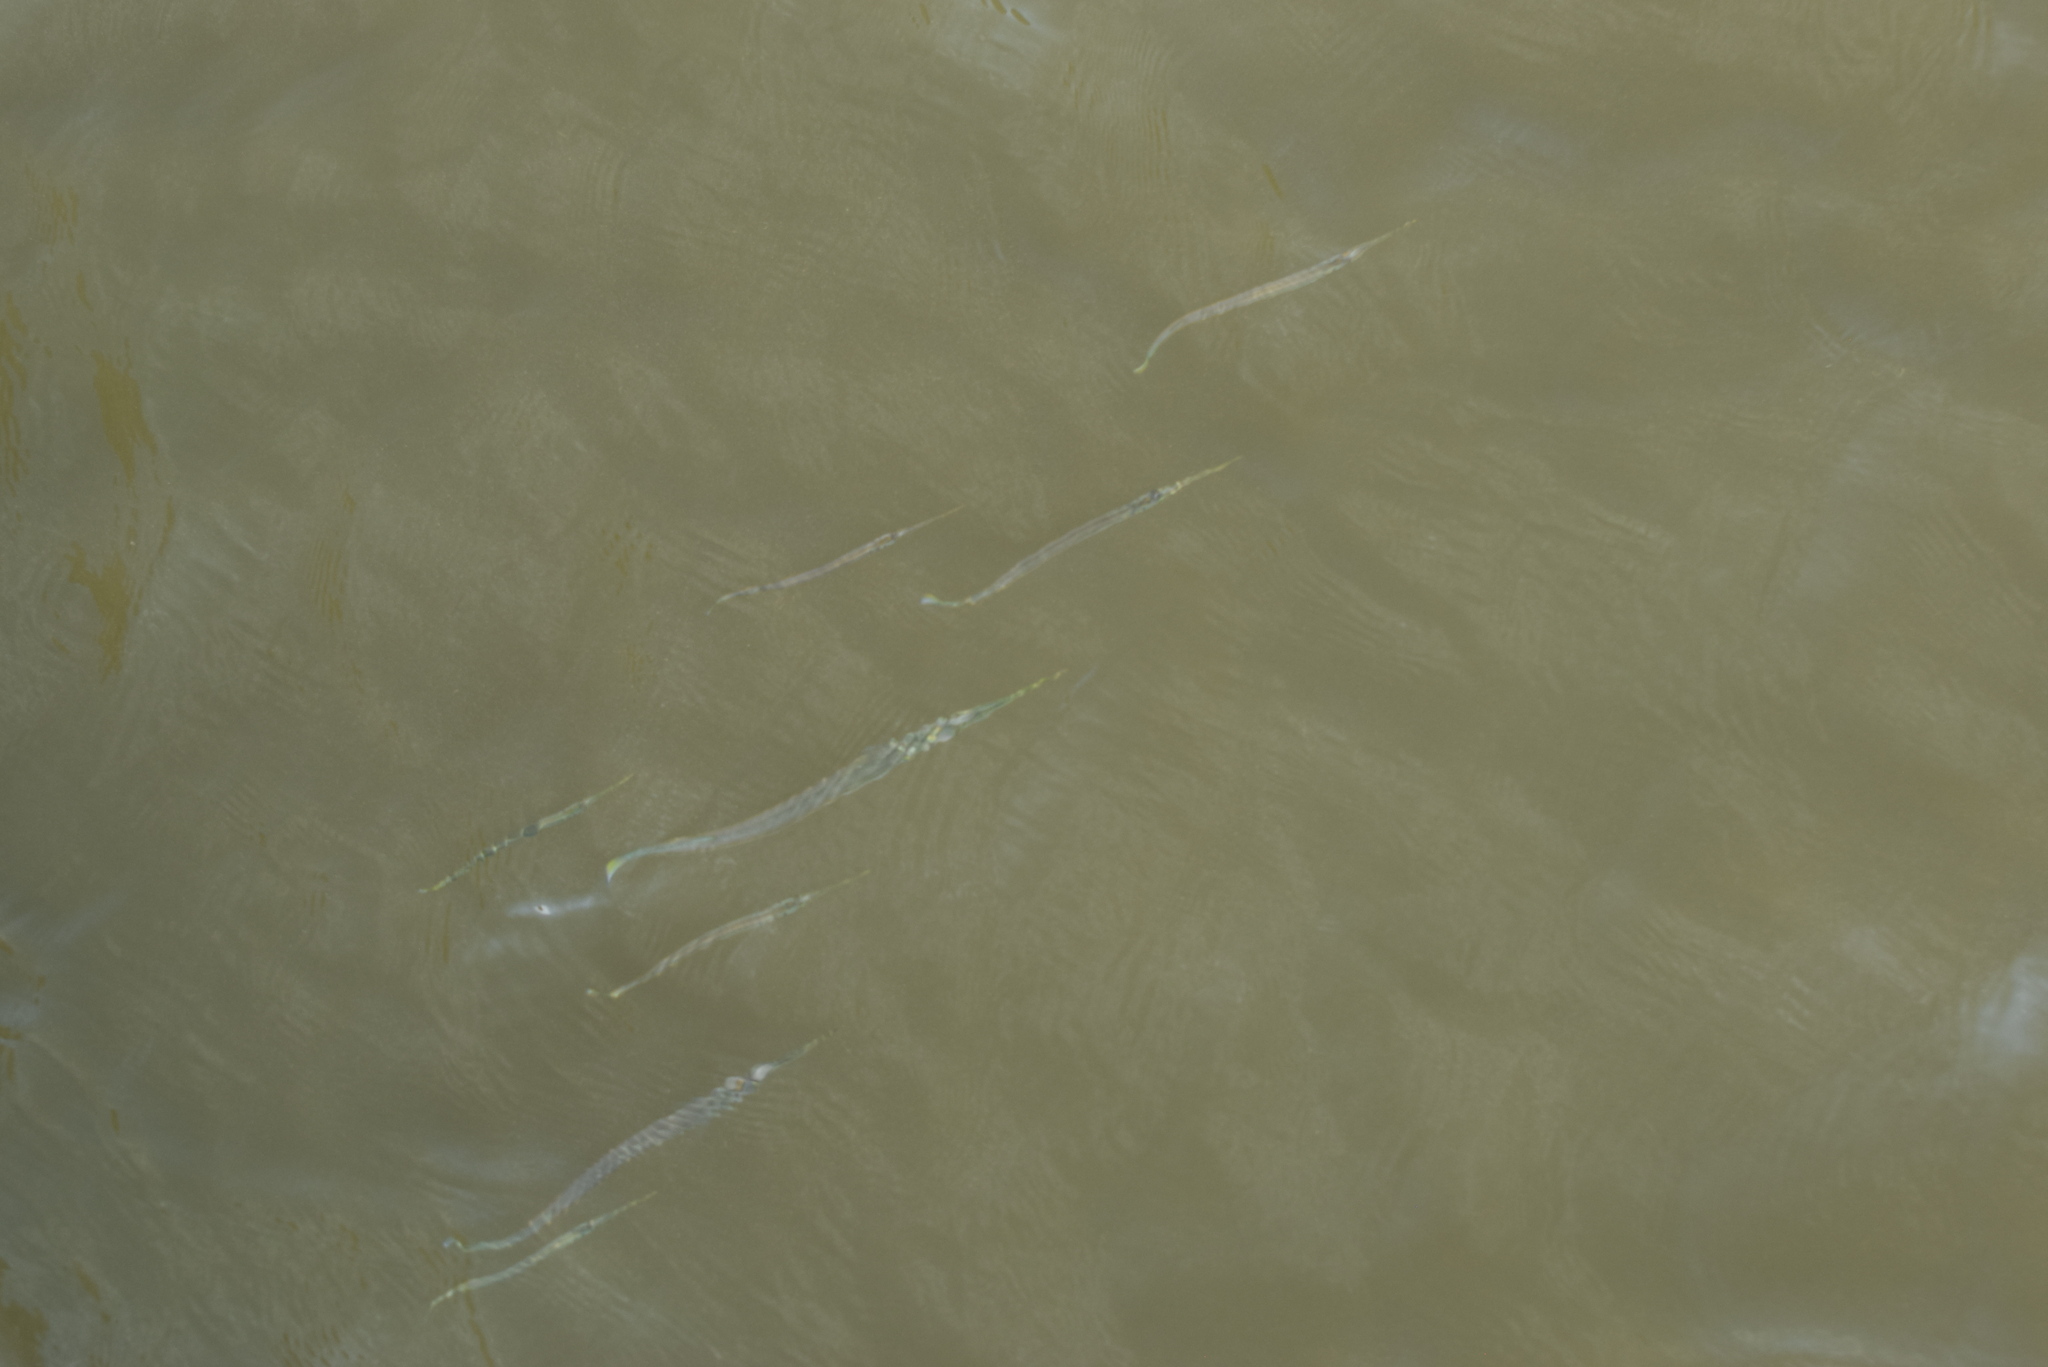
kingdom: Animalia
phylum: Chordata
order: Beloniformes
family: Belonidae
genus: Strongylura
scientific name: Strongylura marina
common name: Atlantic needlefish
